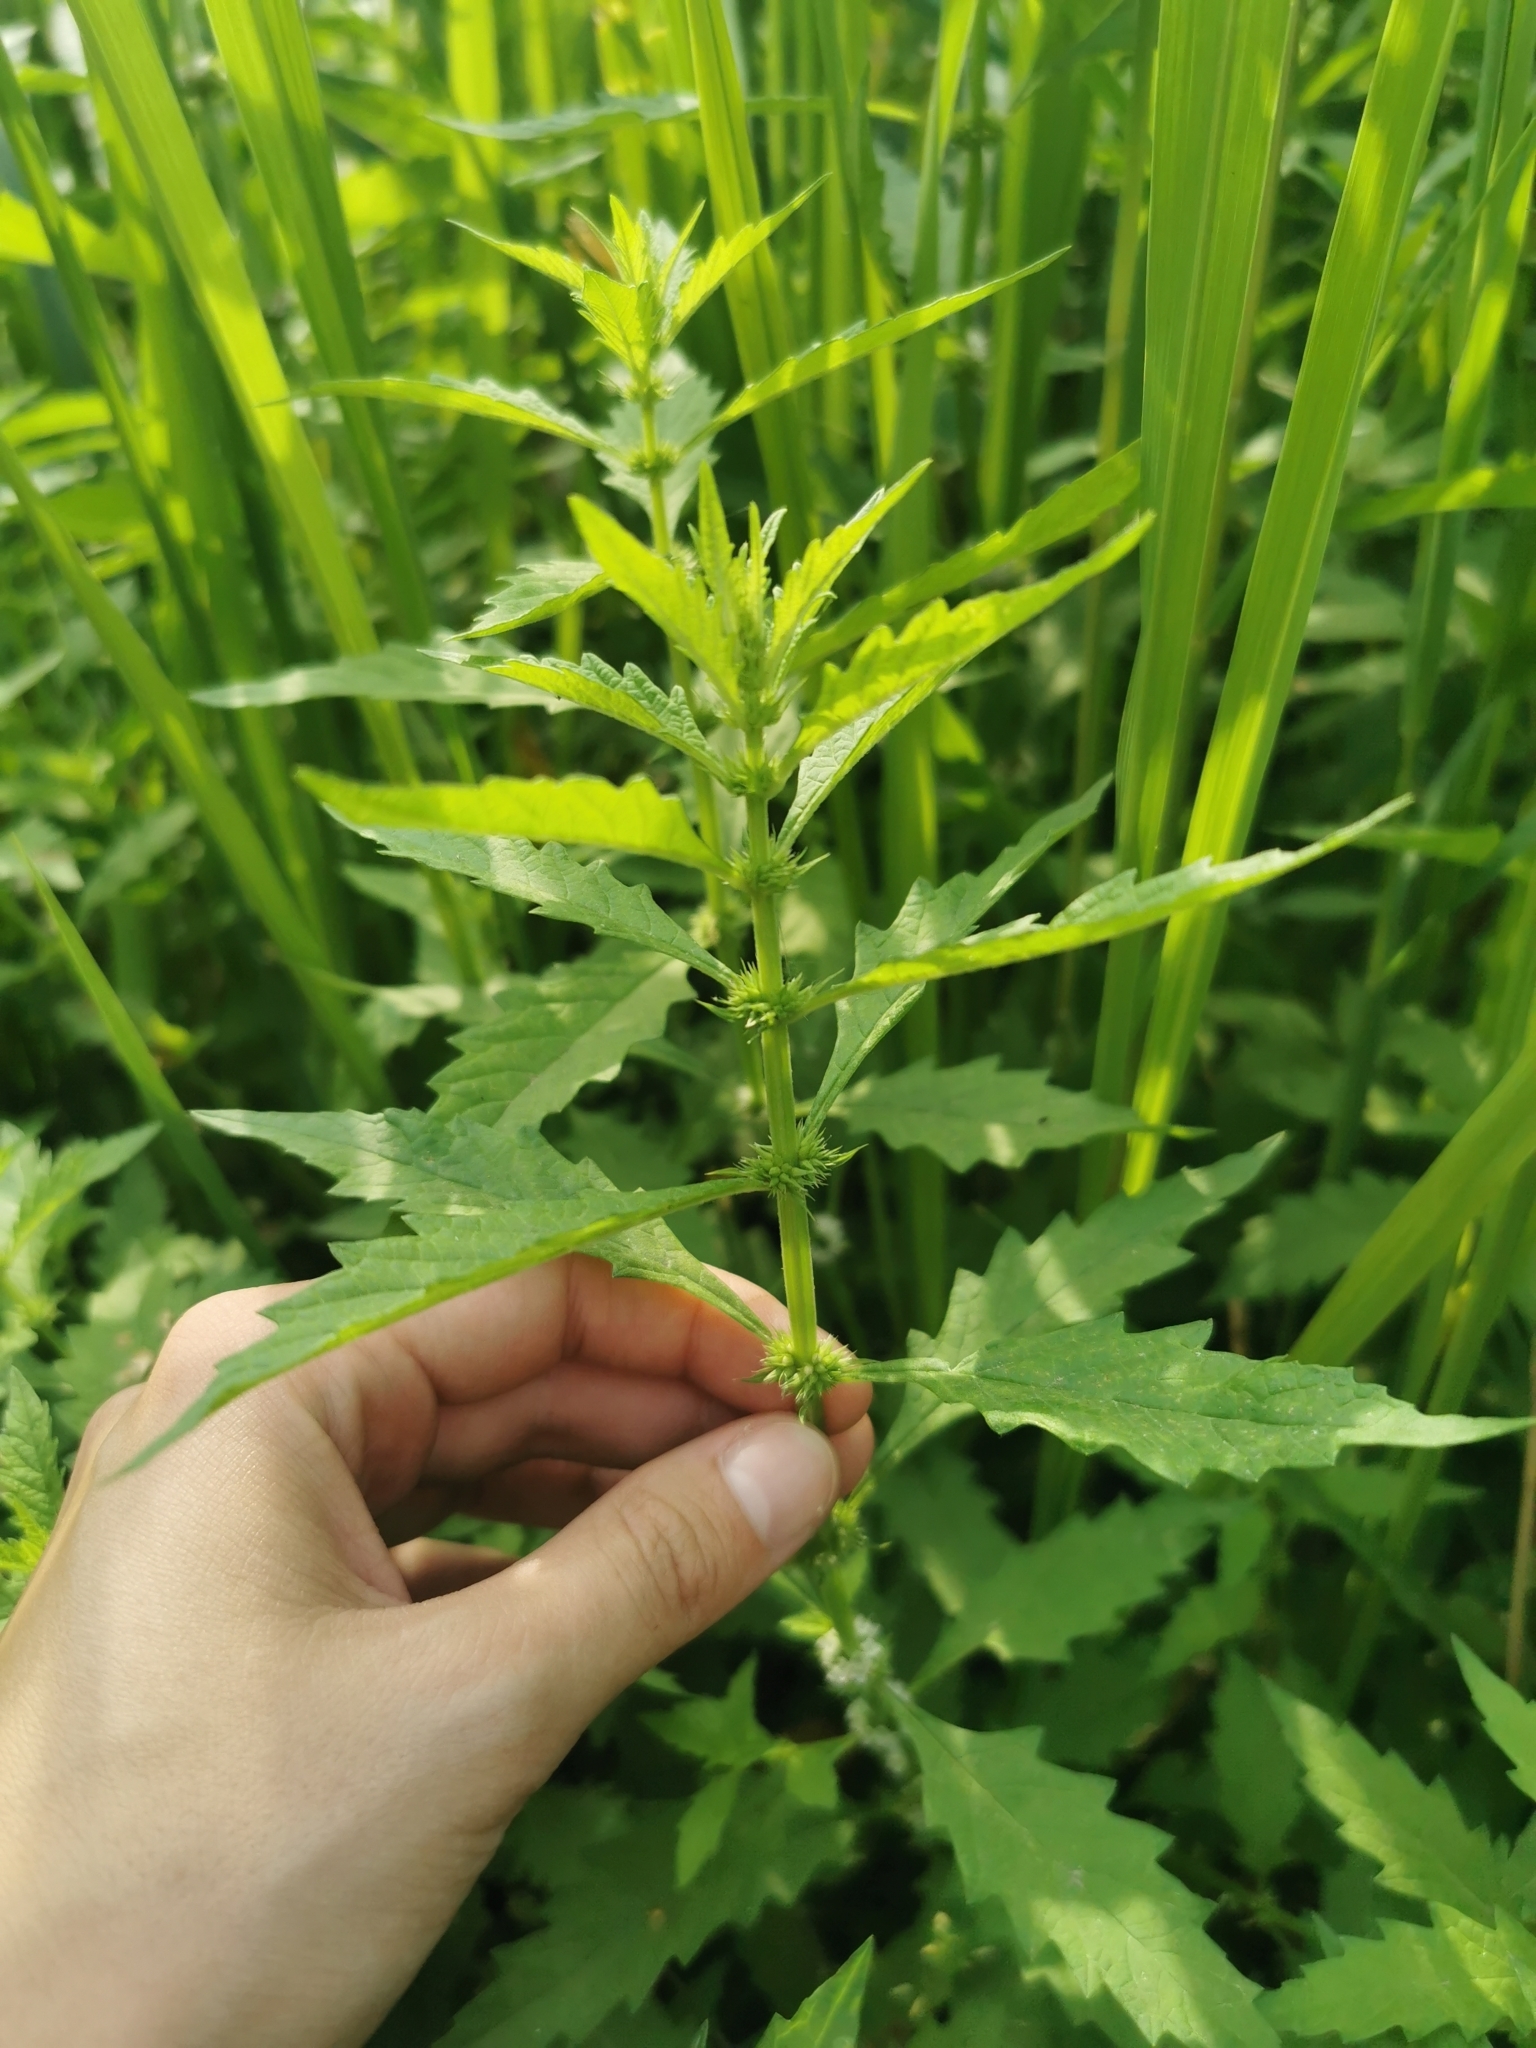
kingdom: Plantae
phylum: Tracheophyta
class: Magnoliopsida
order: Lamiales
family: Lamiaceae
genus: Lycopus
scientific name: Lycopus europaeus
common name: European bugleweed
